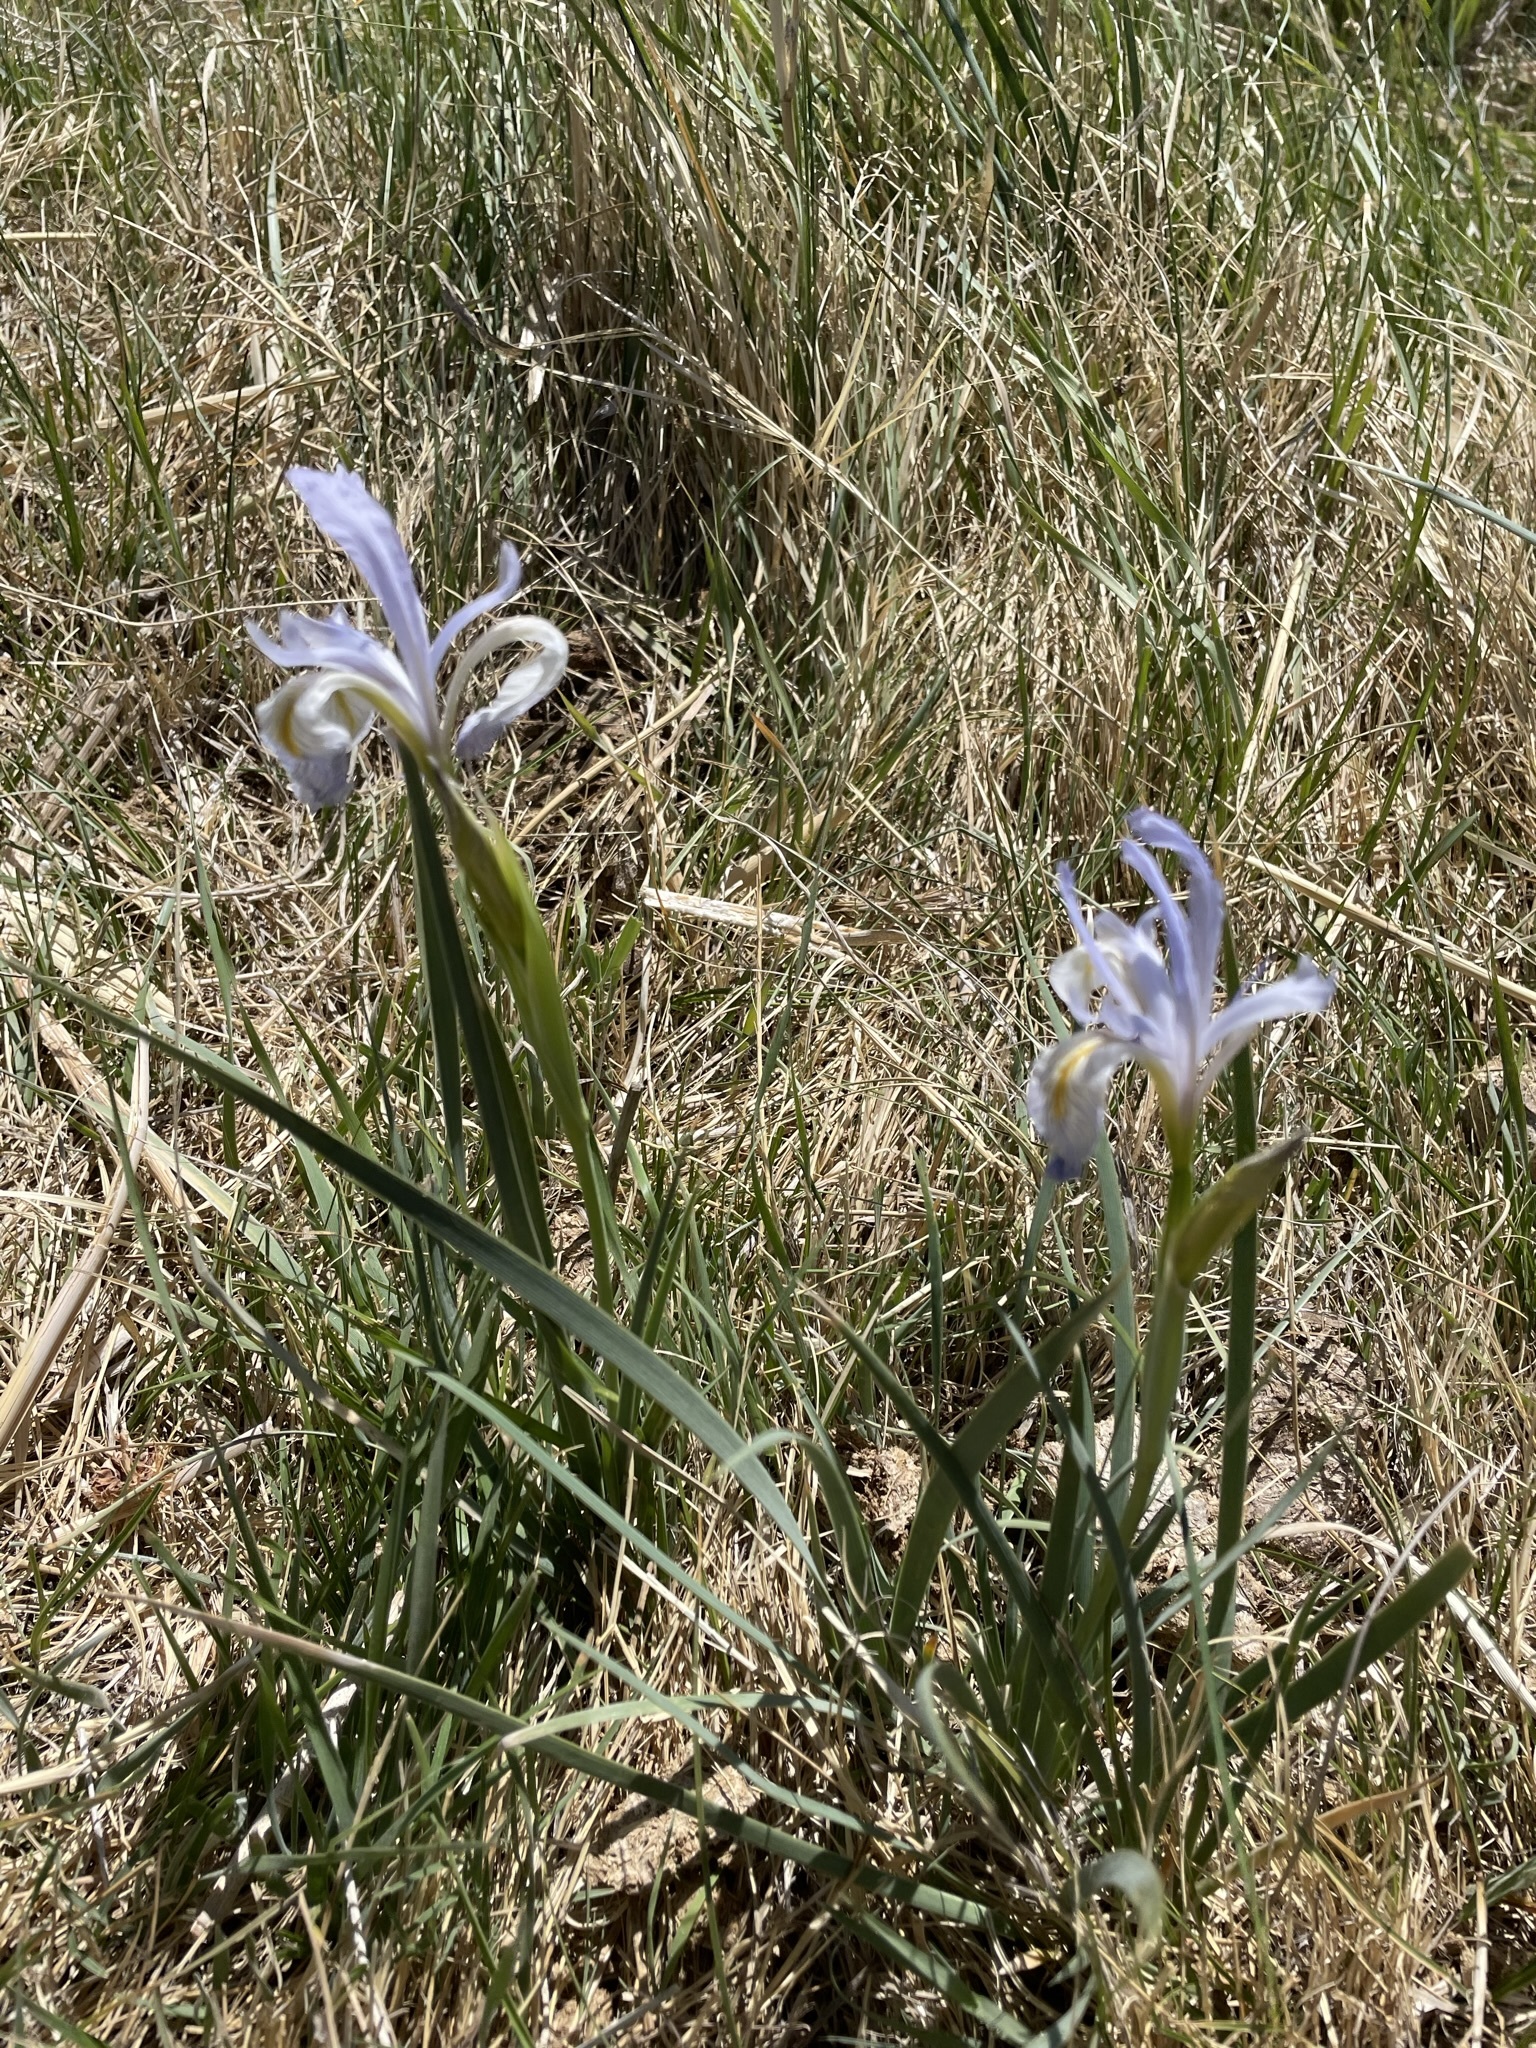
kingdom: Plantae
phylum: Tracheophyta
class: Liliopsida
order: Asparagales
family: Iridaceae
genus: Iris
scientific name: Iris missouriensis
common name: Rocky mountain iris
